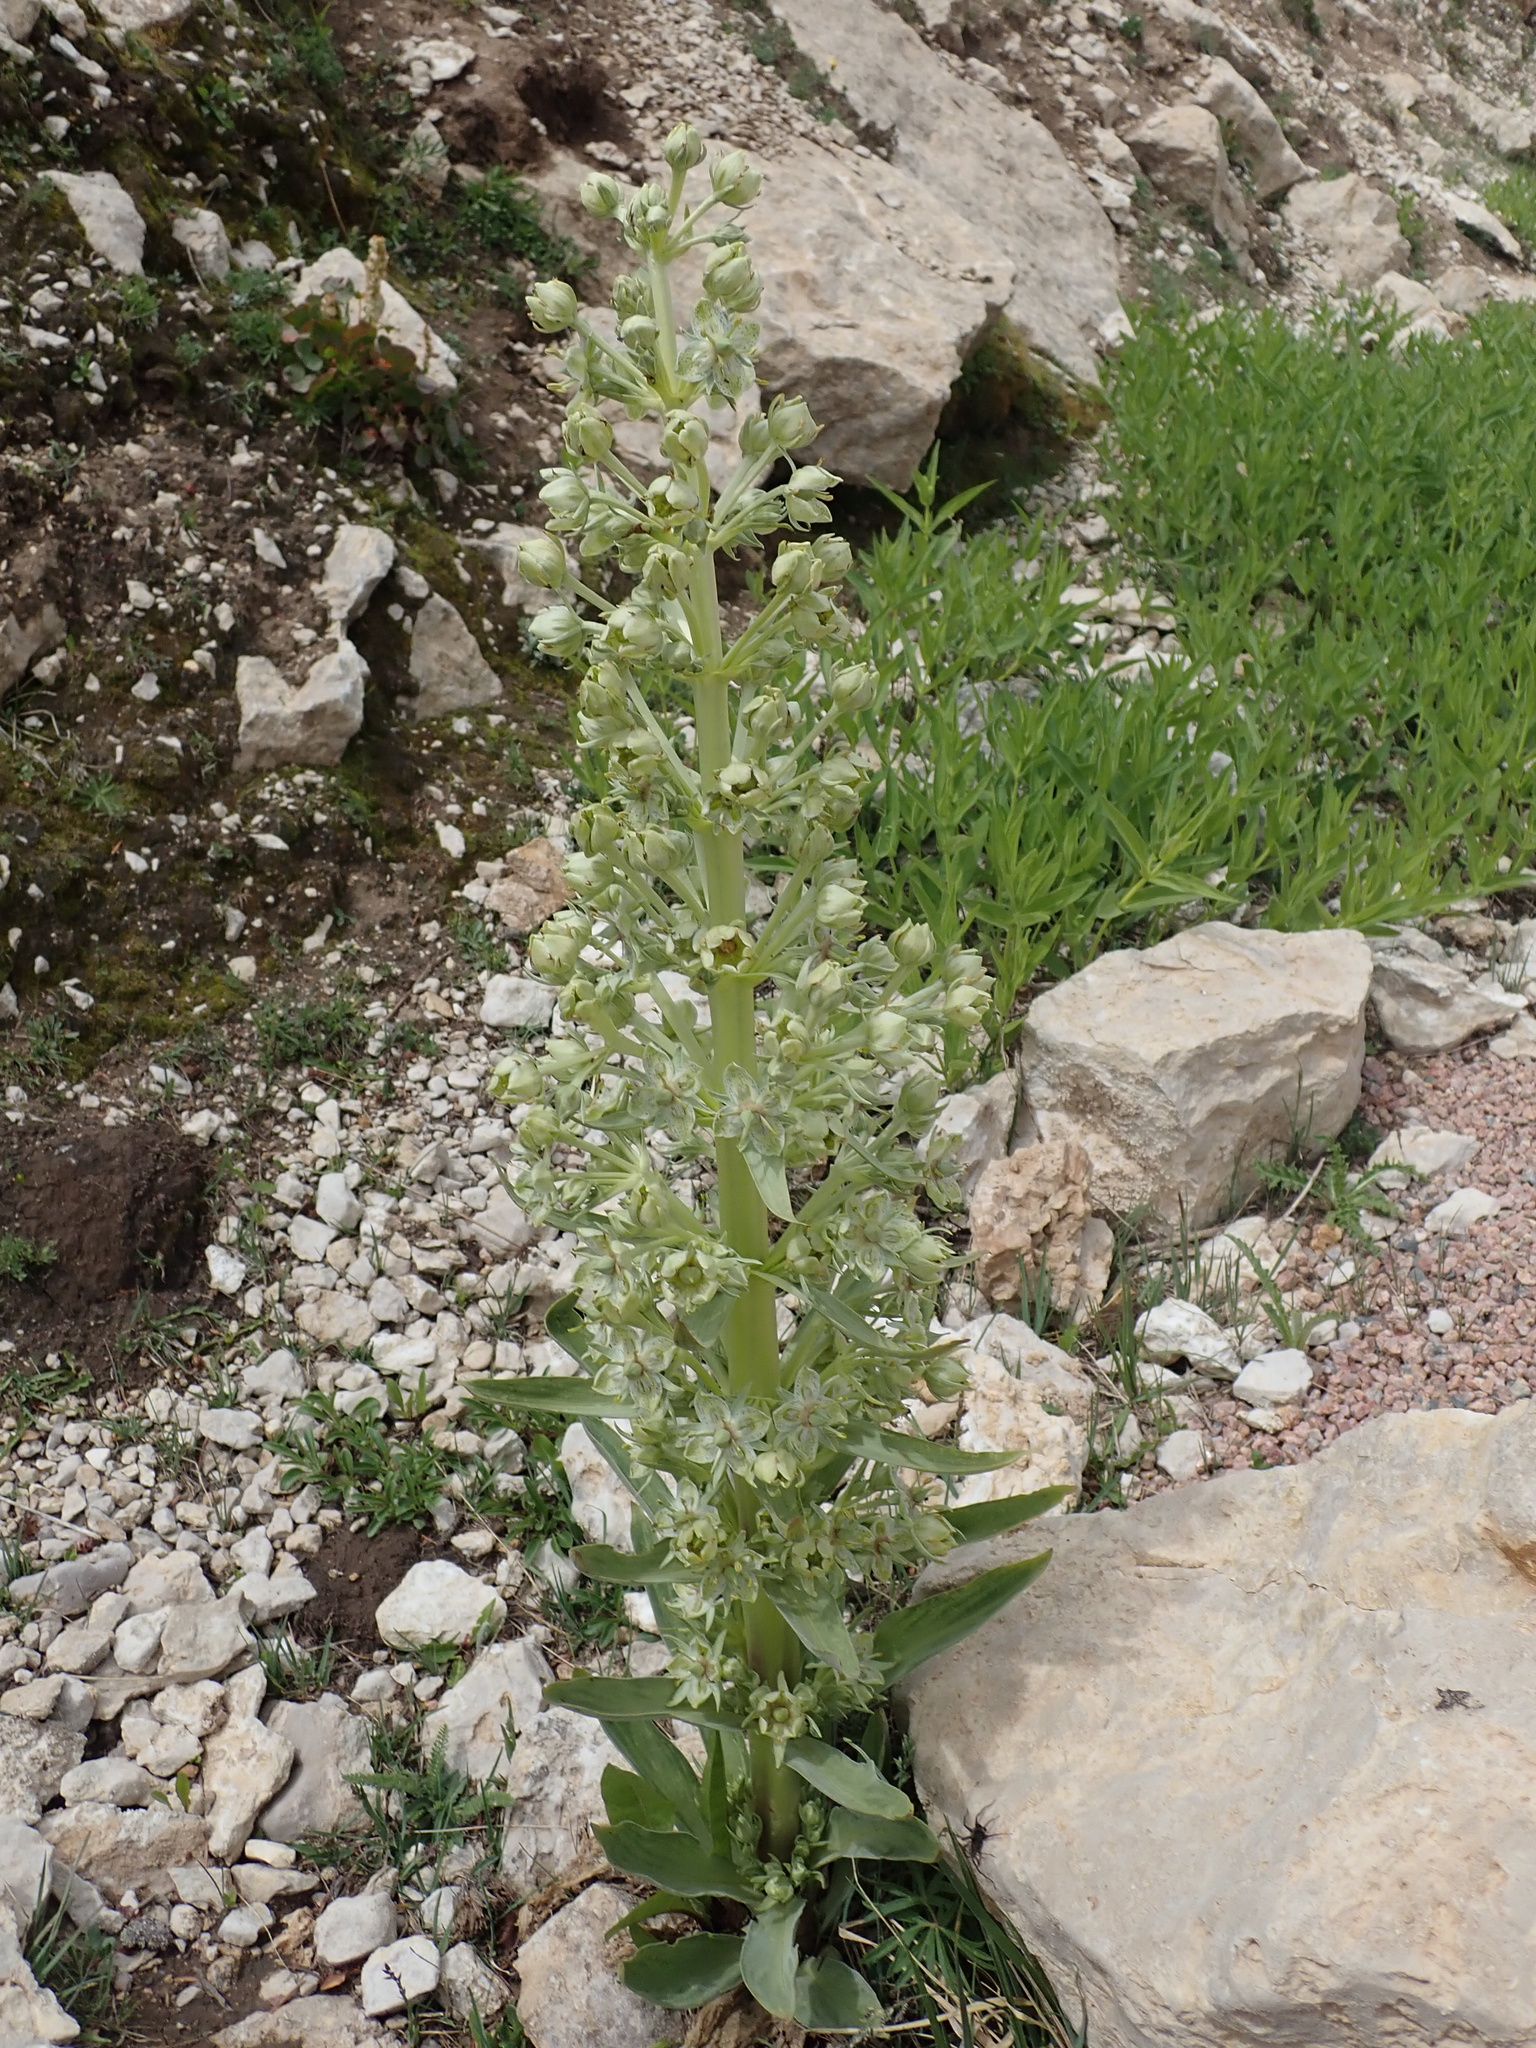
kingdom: Plantae
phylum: Tracheophyta
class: Magnoliopsida
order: Gentianales
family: Gentianaceae
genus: Frasera
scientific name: Frasera speciosa
